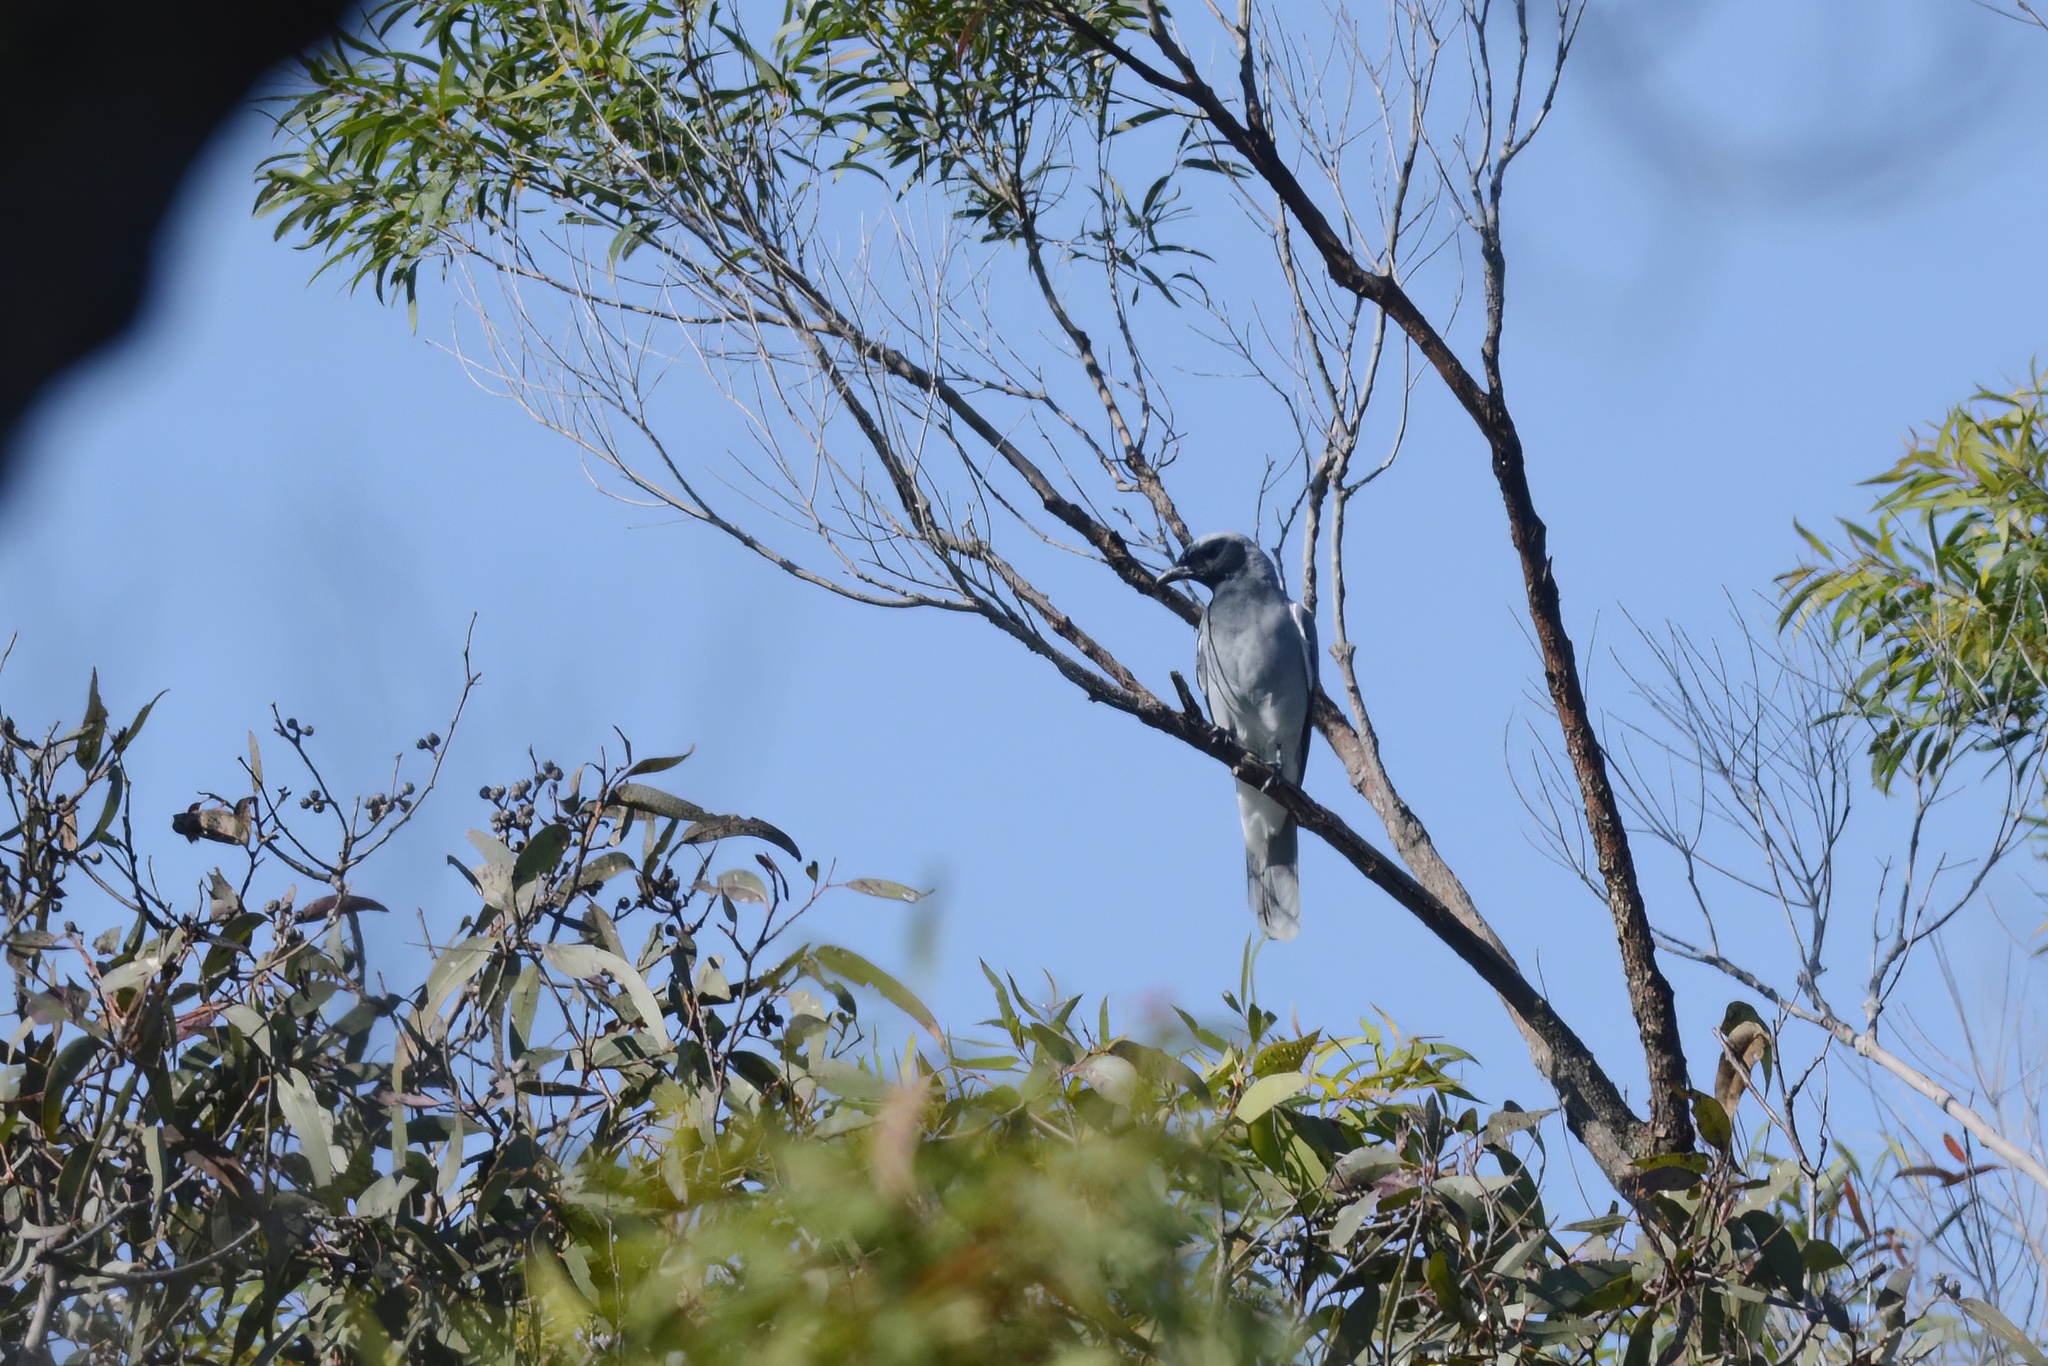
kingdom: Animalia
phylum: Chordata
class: Aves
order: Passeriformes
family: Campephagidae
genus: Coracina
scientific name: Coracina novaehollandiae
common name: Black-faced cuckooshrike
